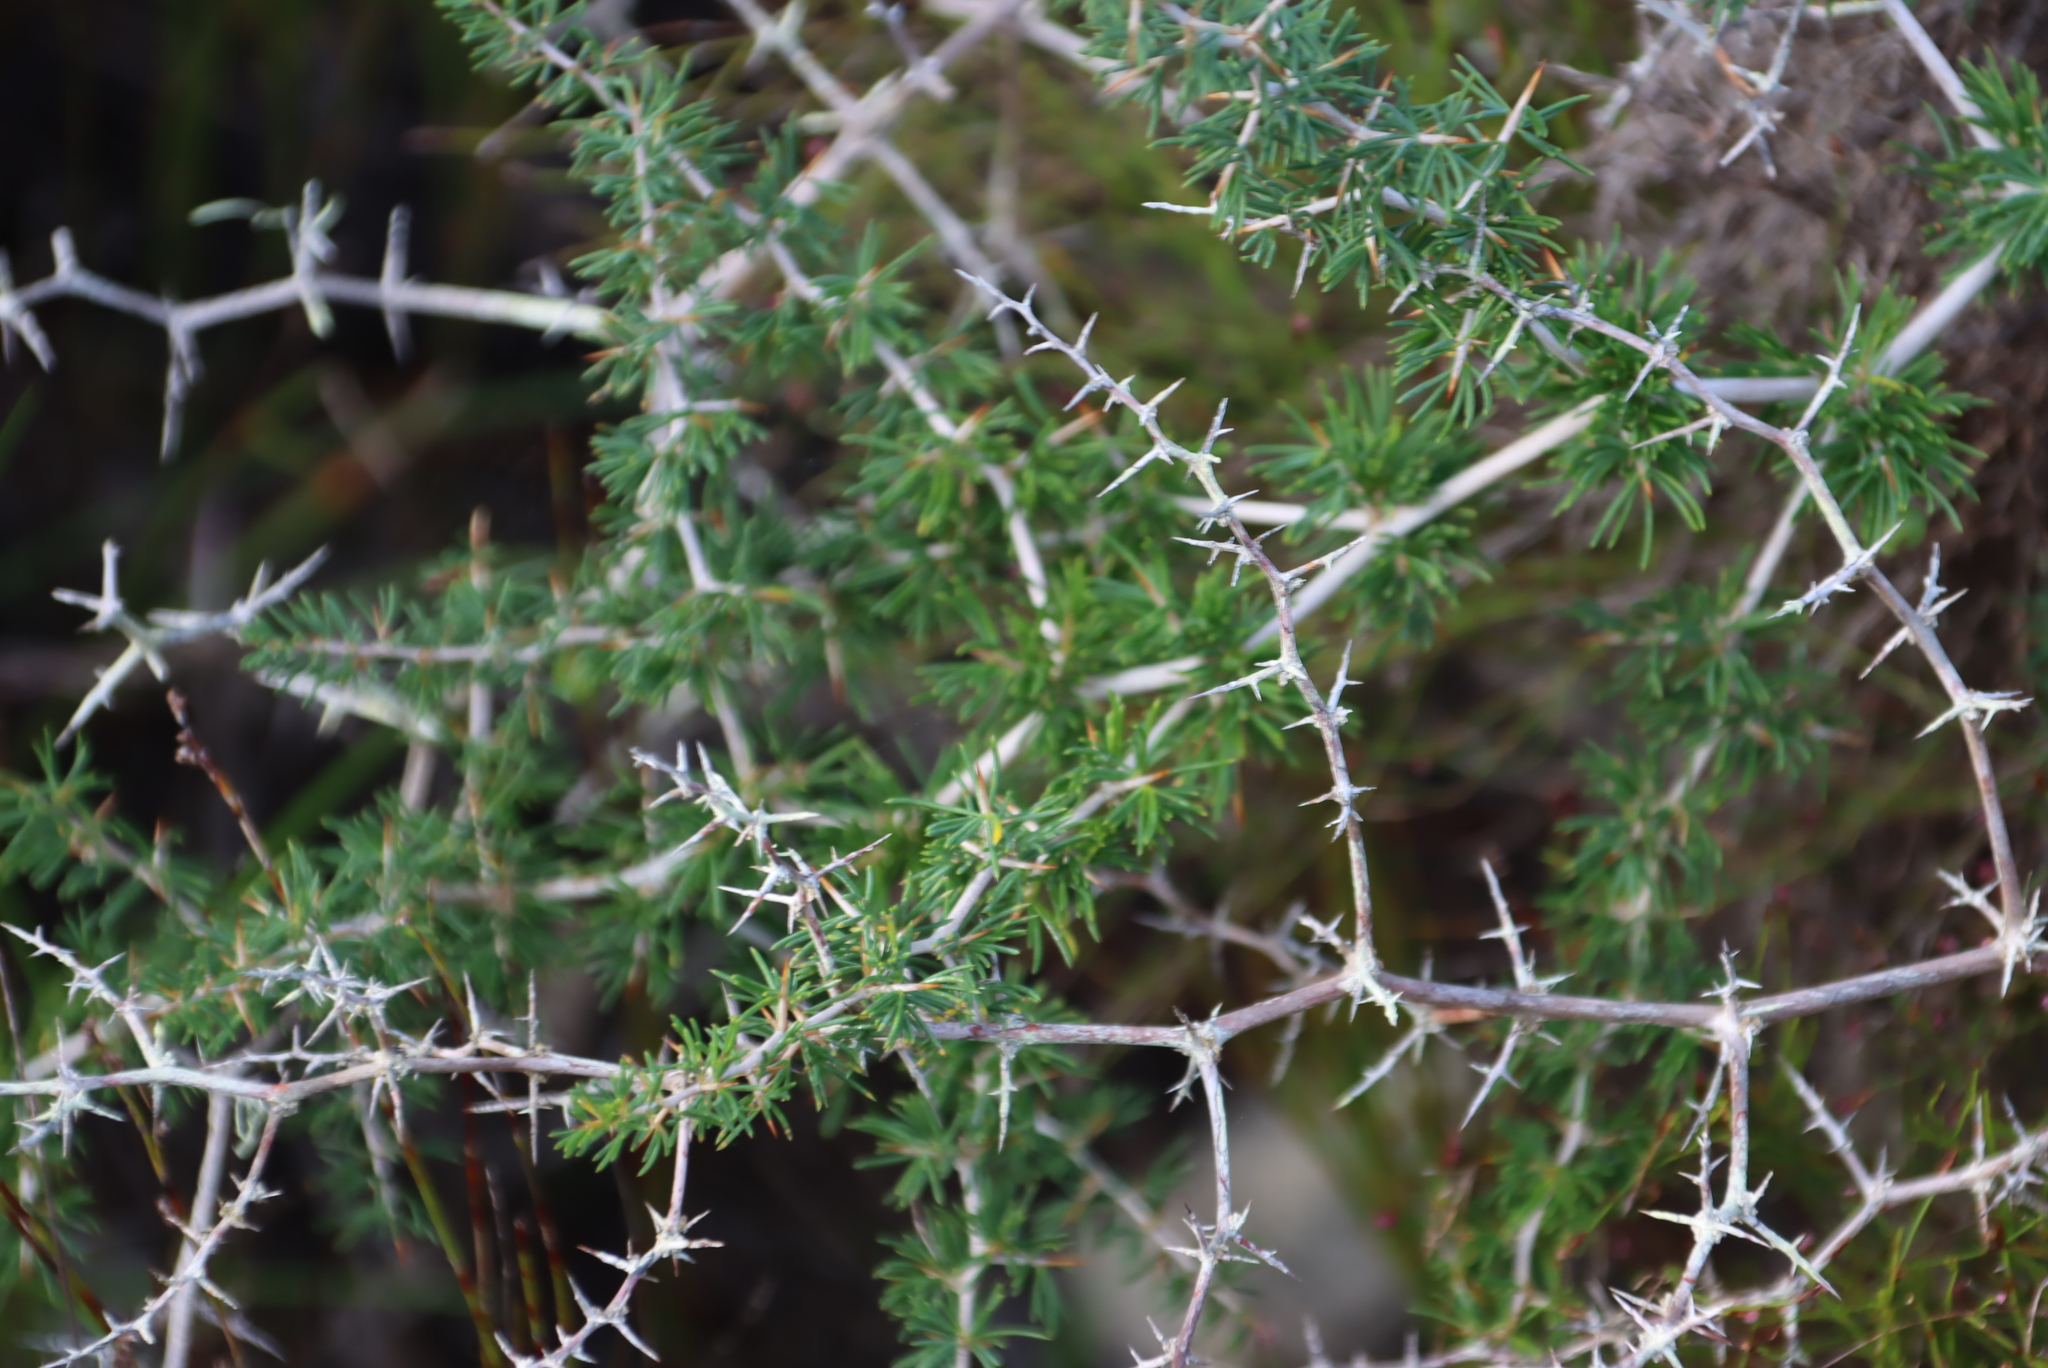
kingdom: Plantae
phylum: Tracheophyta
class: Liliopsida
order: Asparagales
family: Asparagaceae
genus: Asparagus
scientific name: Asparagus suaveolens
